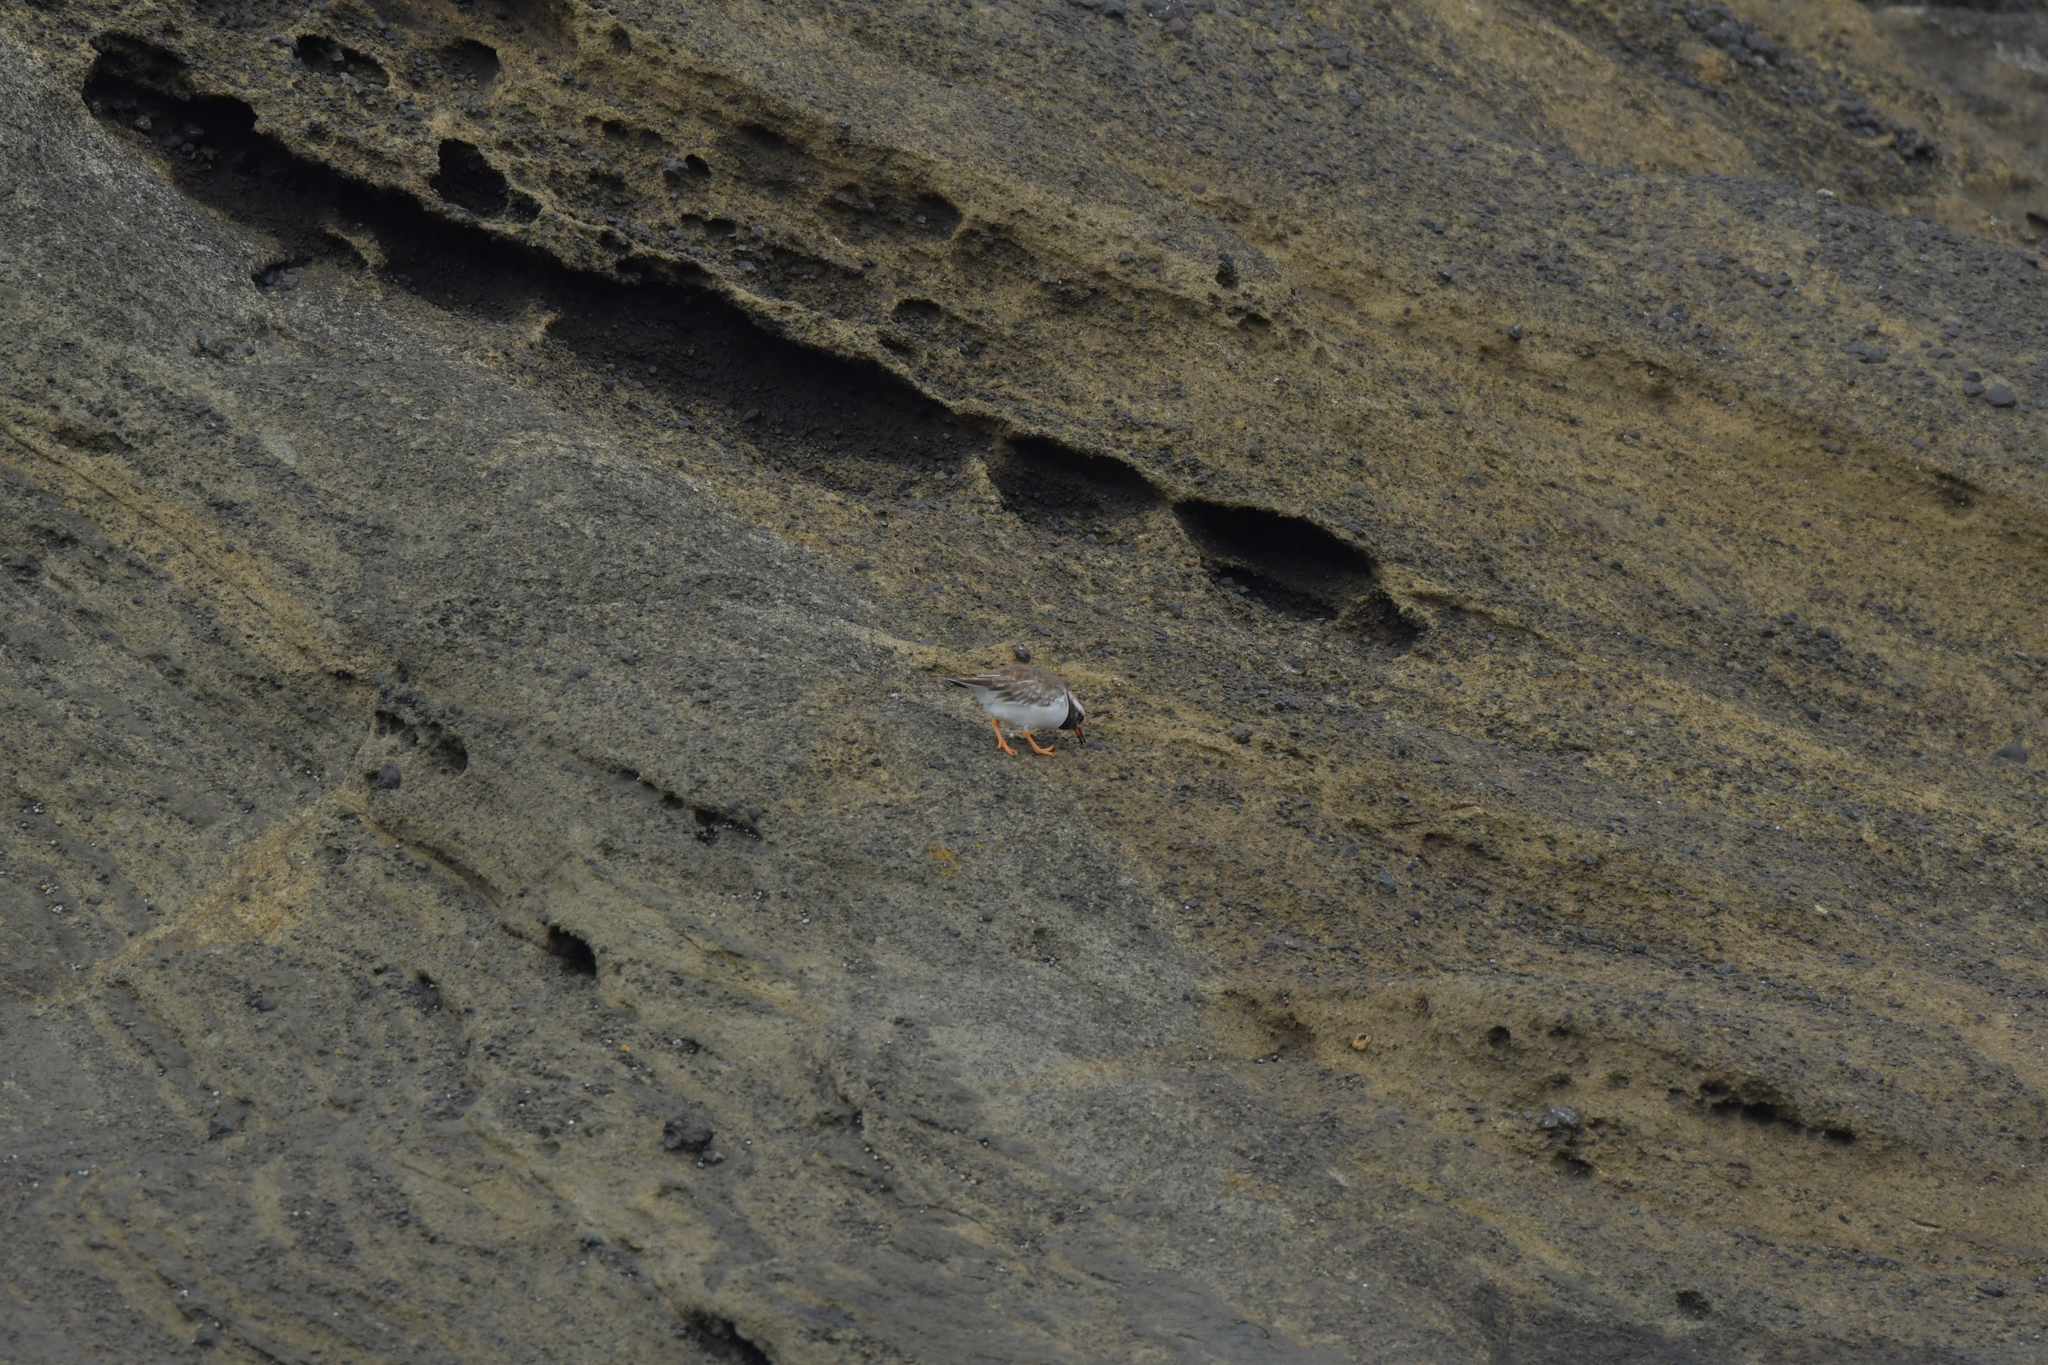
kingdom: Animalia
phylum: Chordata
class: Aves
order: Charadriiformes
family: Charadriidae
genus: Thinornis
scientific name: Thinornis novaeseelandiae
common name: Shore dotterel
